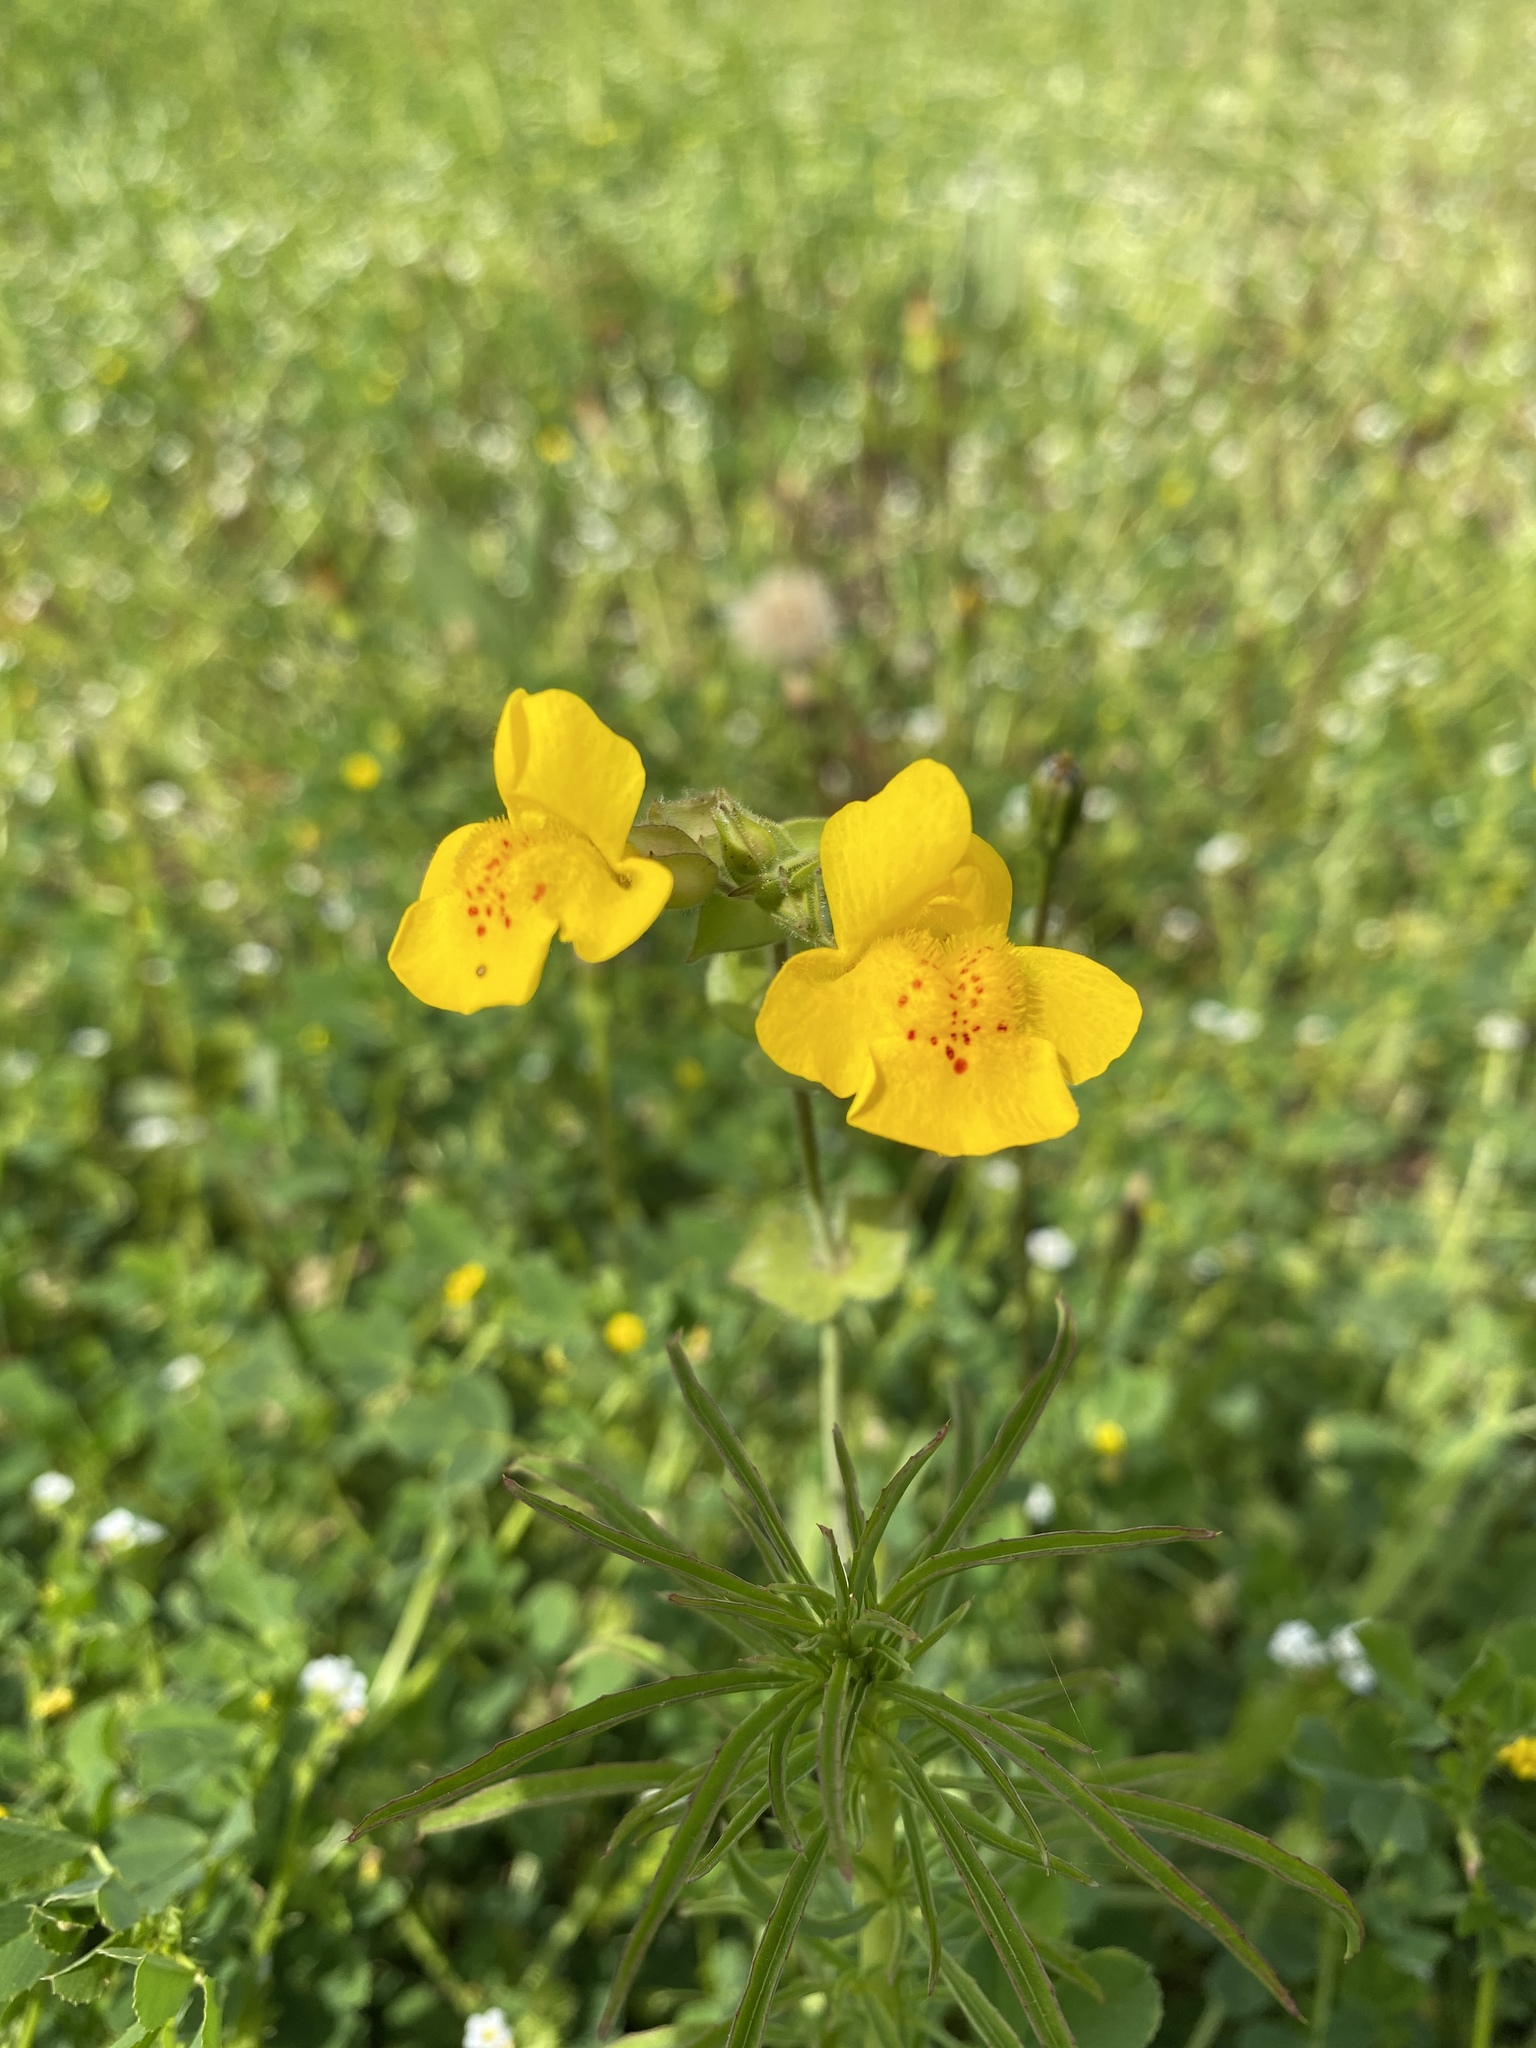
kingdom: Plantae
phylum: Tracheophyta
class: Magnoliopsida
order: Lamiales
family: Phrymaceae
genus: Erythranthe
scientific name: Erythranthe guttata
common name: Monkeyflower
